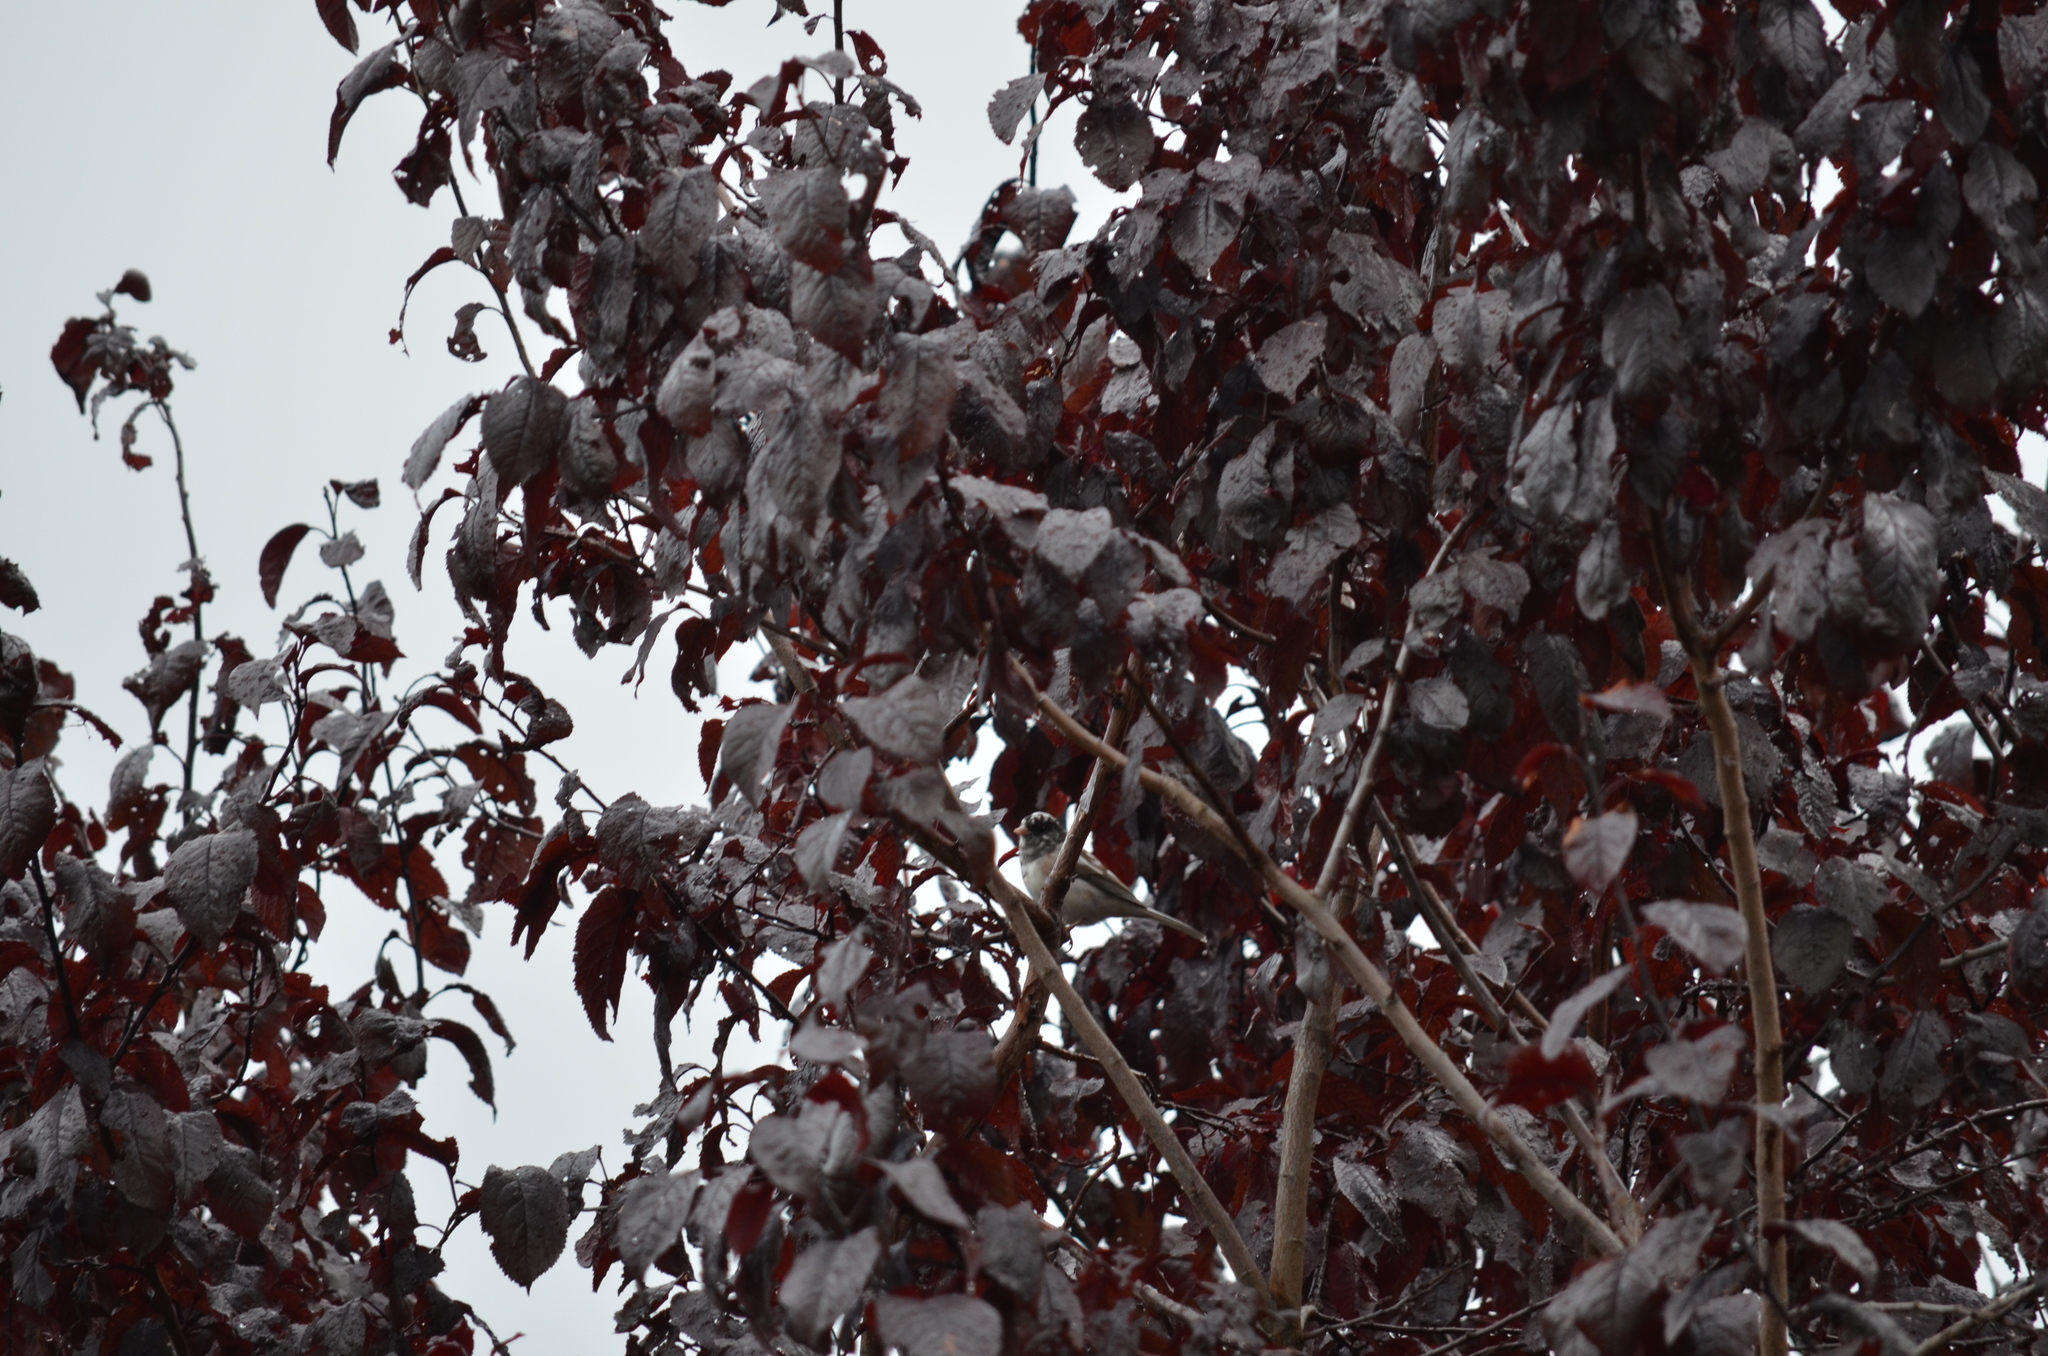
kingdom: Animalia
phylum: Chordata
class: Aves
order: Passeriformes
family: Passerellidae
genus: Junco
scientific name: Junco hyemalis
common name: Dark-eyed junco
